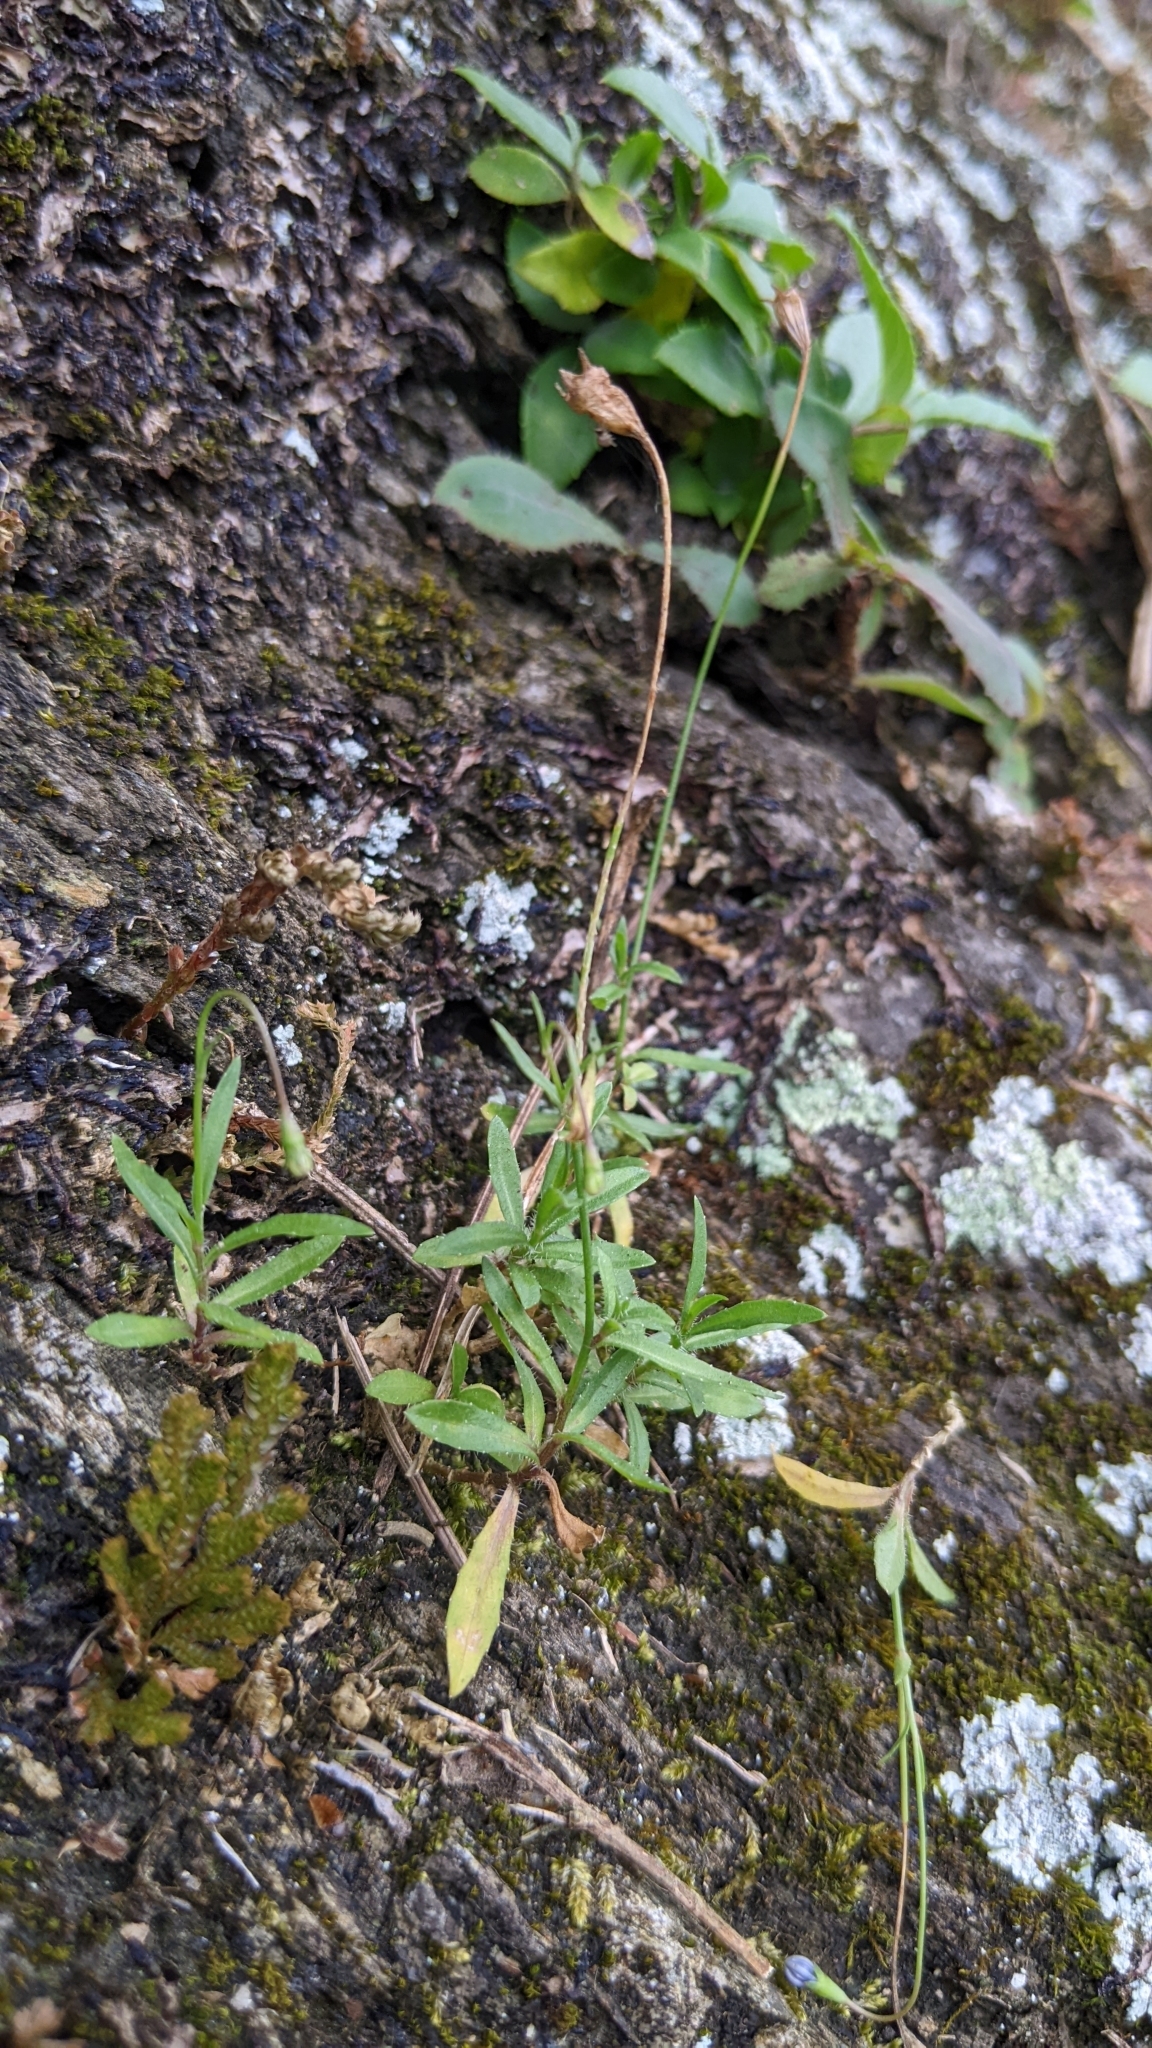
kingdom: Plantae
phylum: Tracheophyta
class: Magnoliopsida
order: Asterales
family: Campanulaceae
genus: Wahlenbergia
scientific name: Wahlenbergia marginata
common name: Southern rockbell
